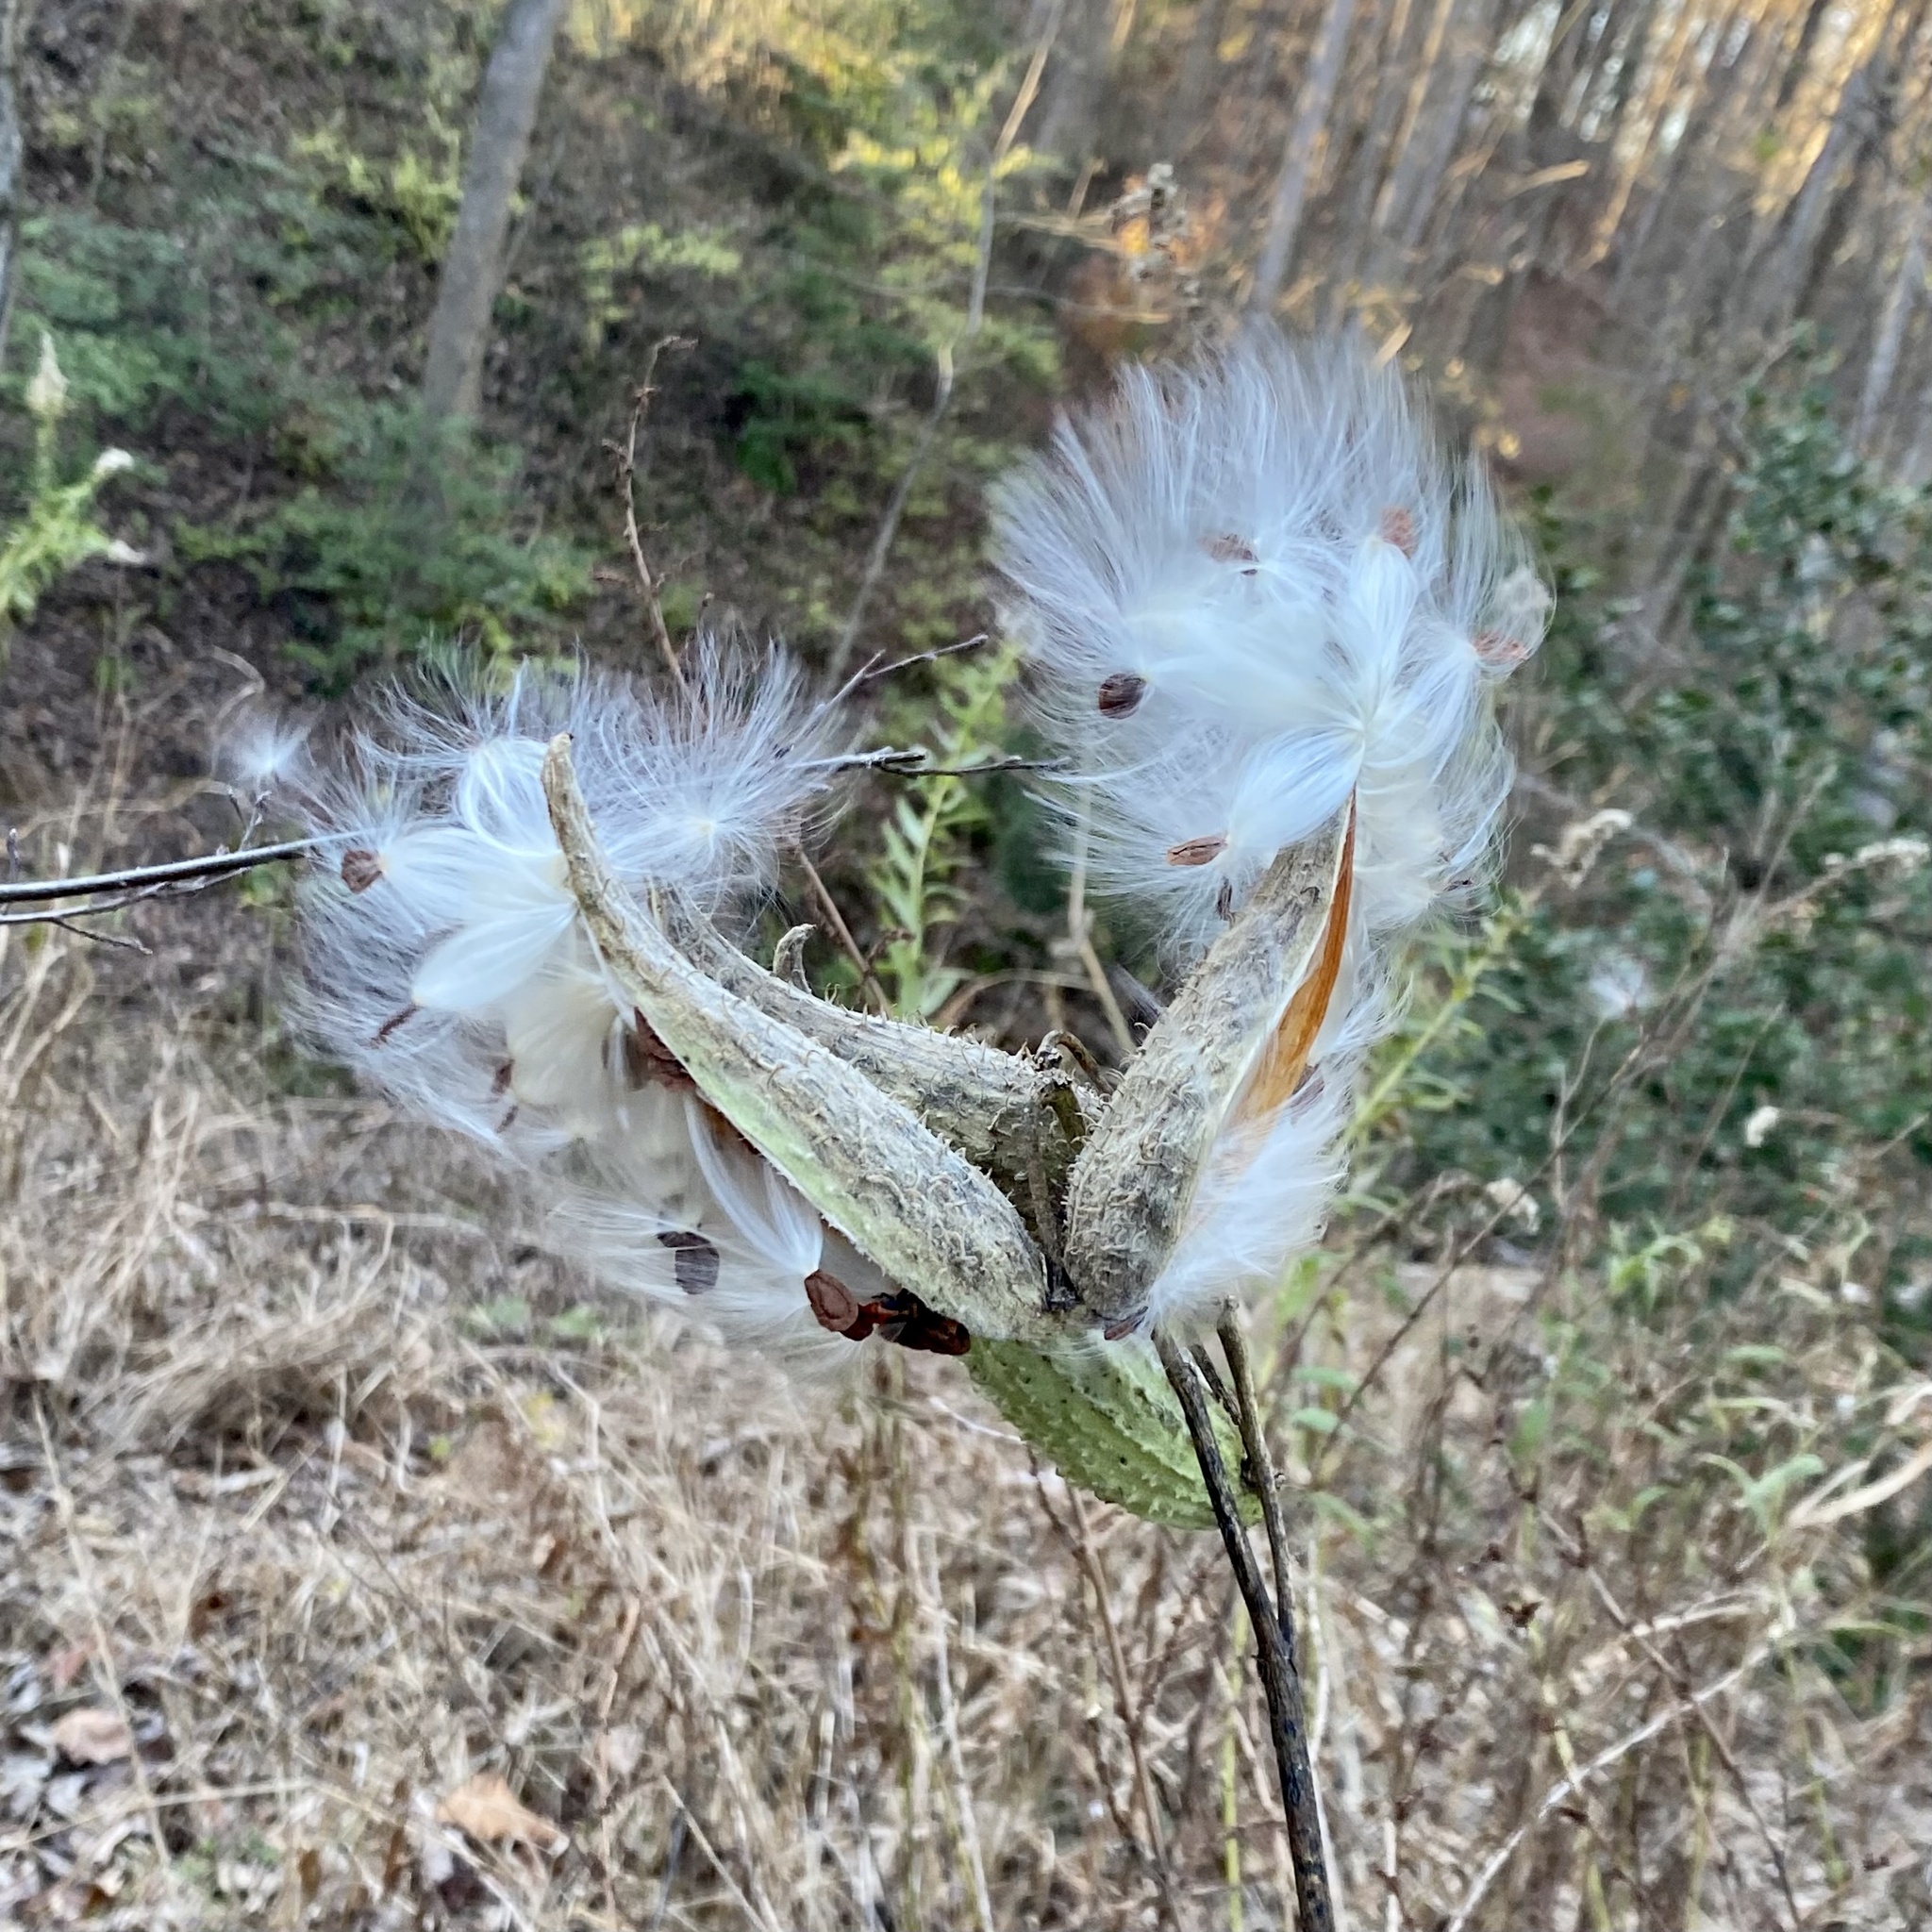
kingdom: Plantae
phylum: Tracheophyta
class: Magnoliopsida
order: Gentianales
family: Apocynaceae
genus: Asclepias
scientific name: Asclepias syriaca
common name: Common milkweed
